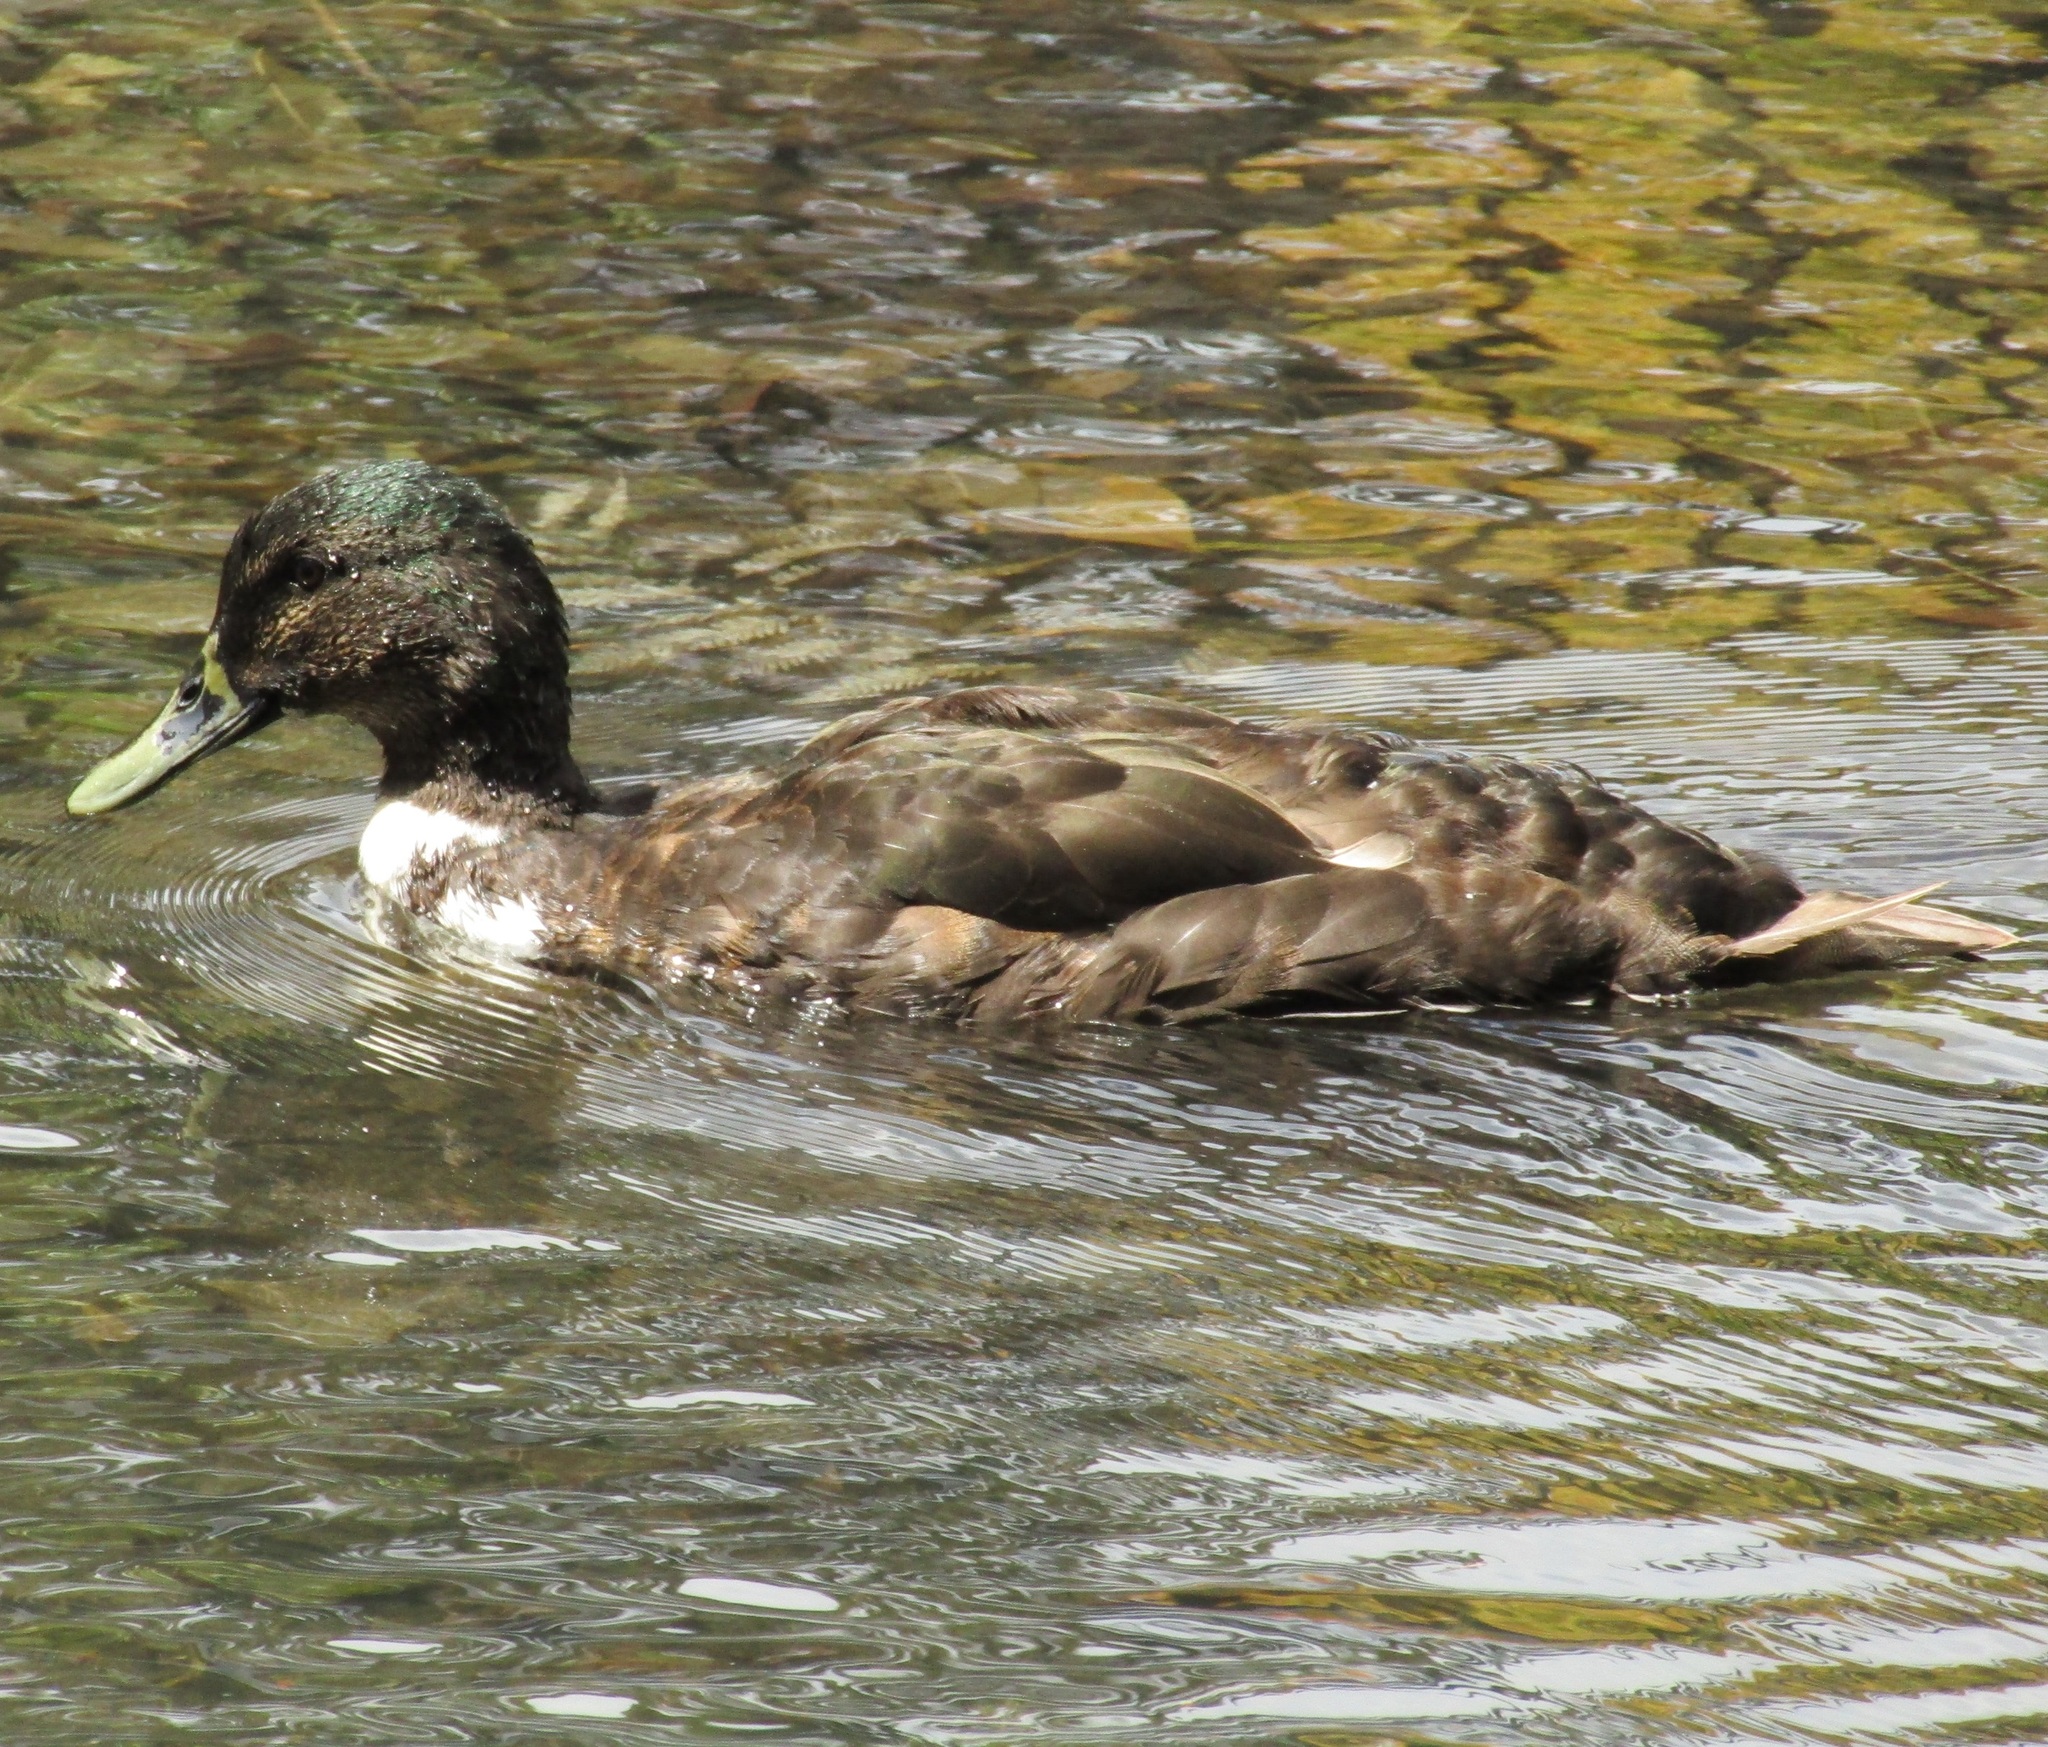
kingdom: Animalia
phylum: Chordata
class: Aves
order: Anseriformes
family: Anatidae
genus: Anas
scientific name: Anas platyrhynchos
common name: Mallard
